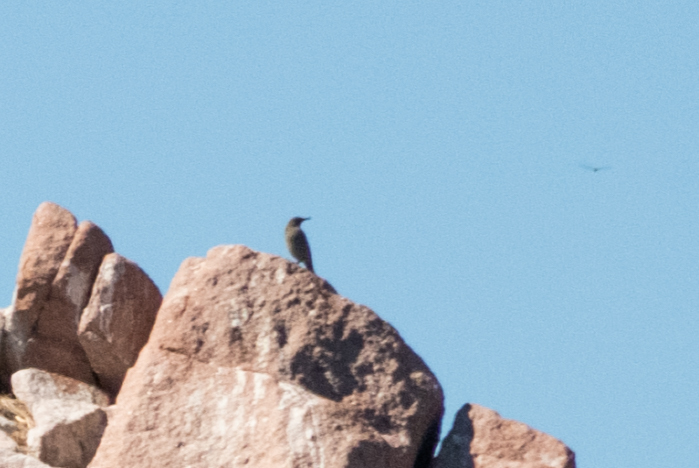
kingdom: Animalia
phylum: Chordata
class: Aves
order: Passeriformes
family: Muscicapidae
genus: Monticola
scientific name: Monticola solitarius
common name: Blue rock thrush
